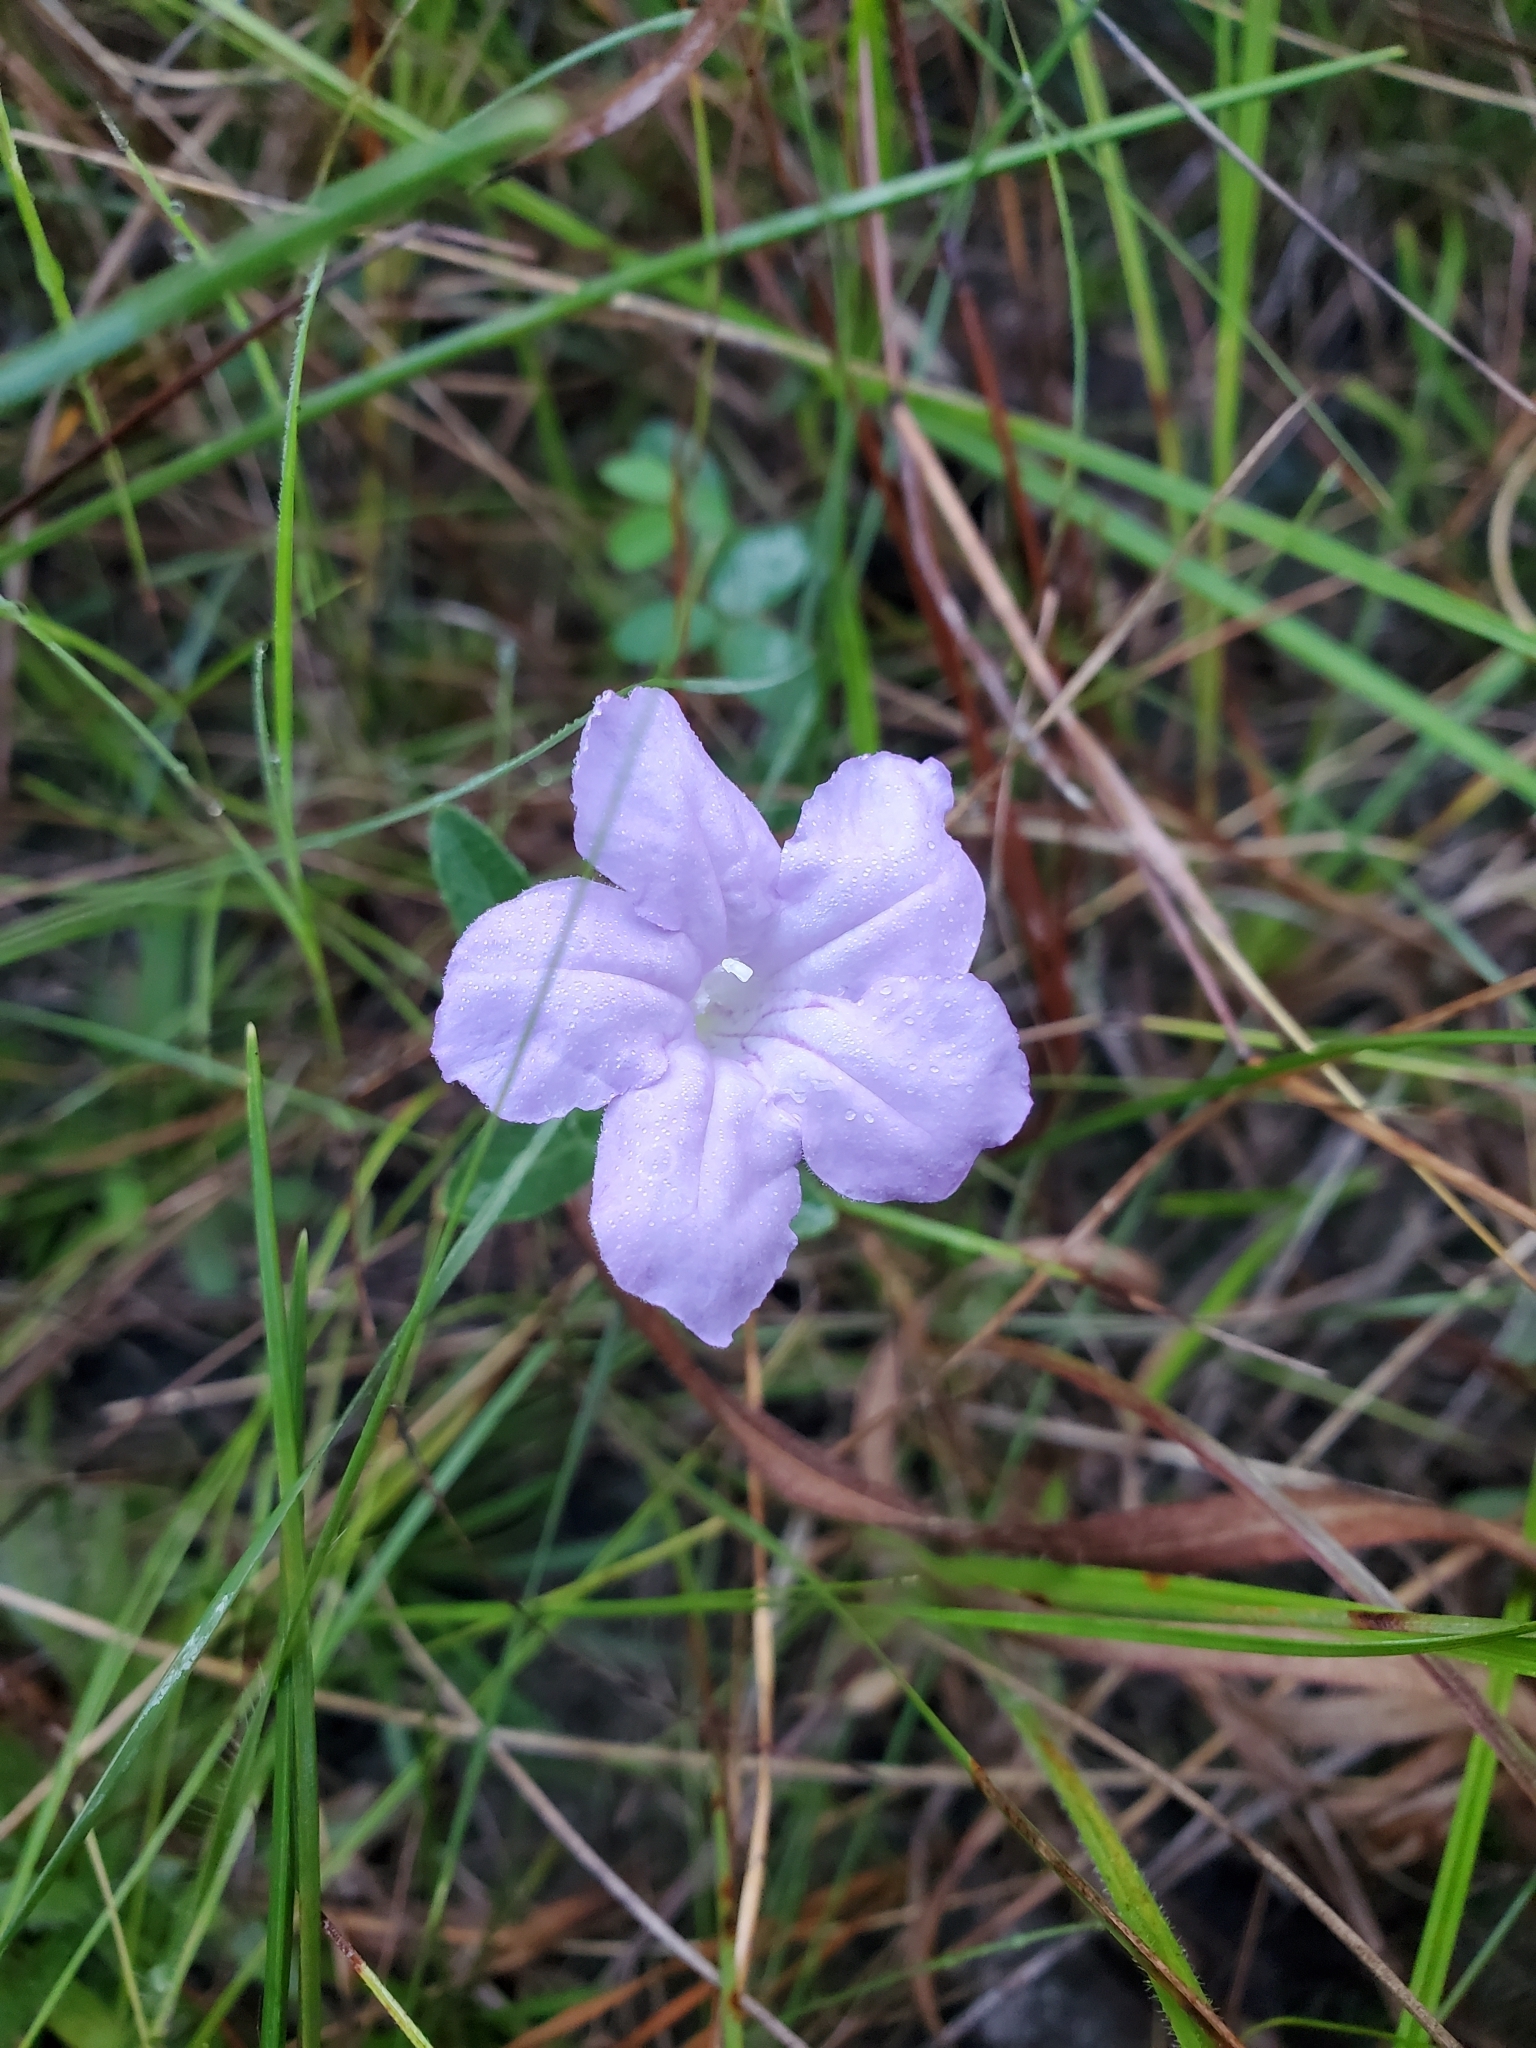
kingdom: Plantae
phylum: Tracheophyta
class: Magnoliopsida
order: Lamiales
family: Acanthaceae
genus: Ruellia
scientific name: Ruellia humilis
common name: Fringe-leaf ruellia
